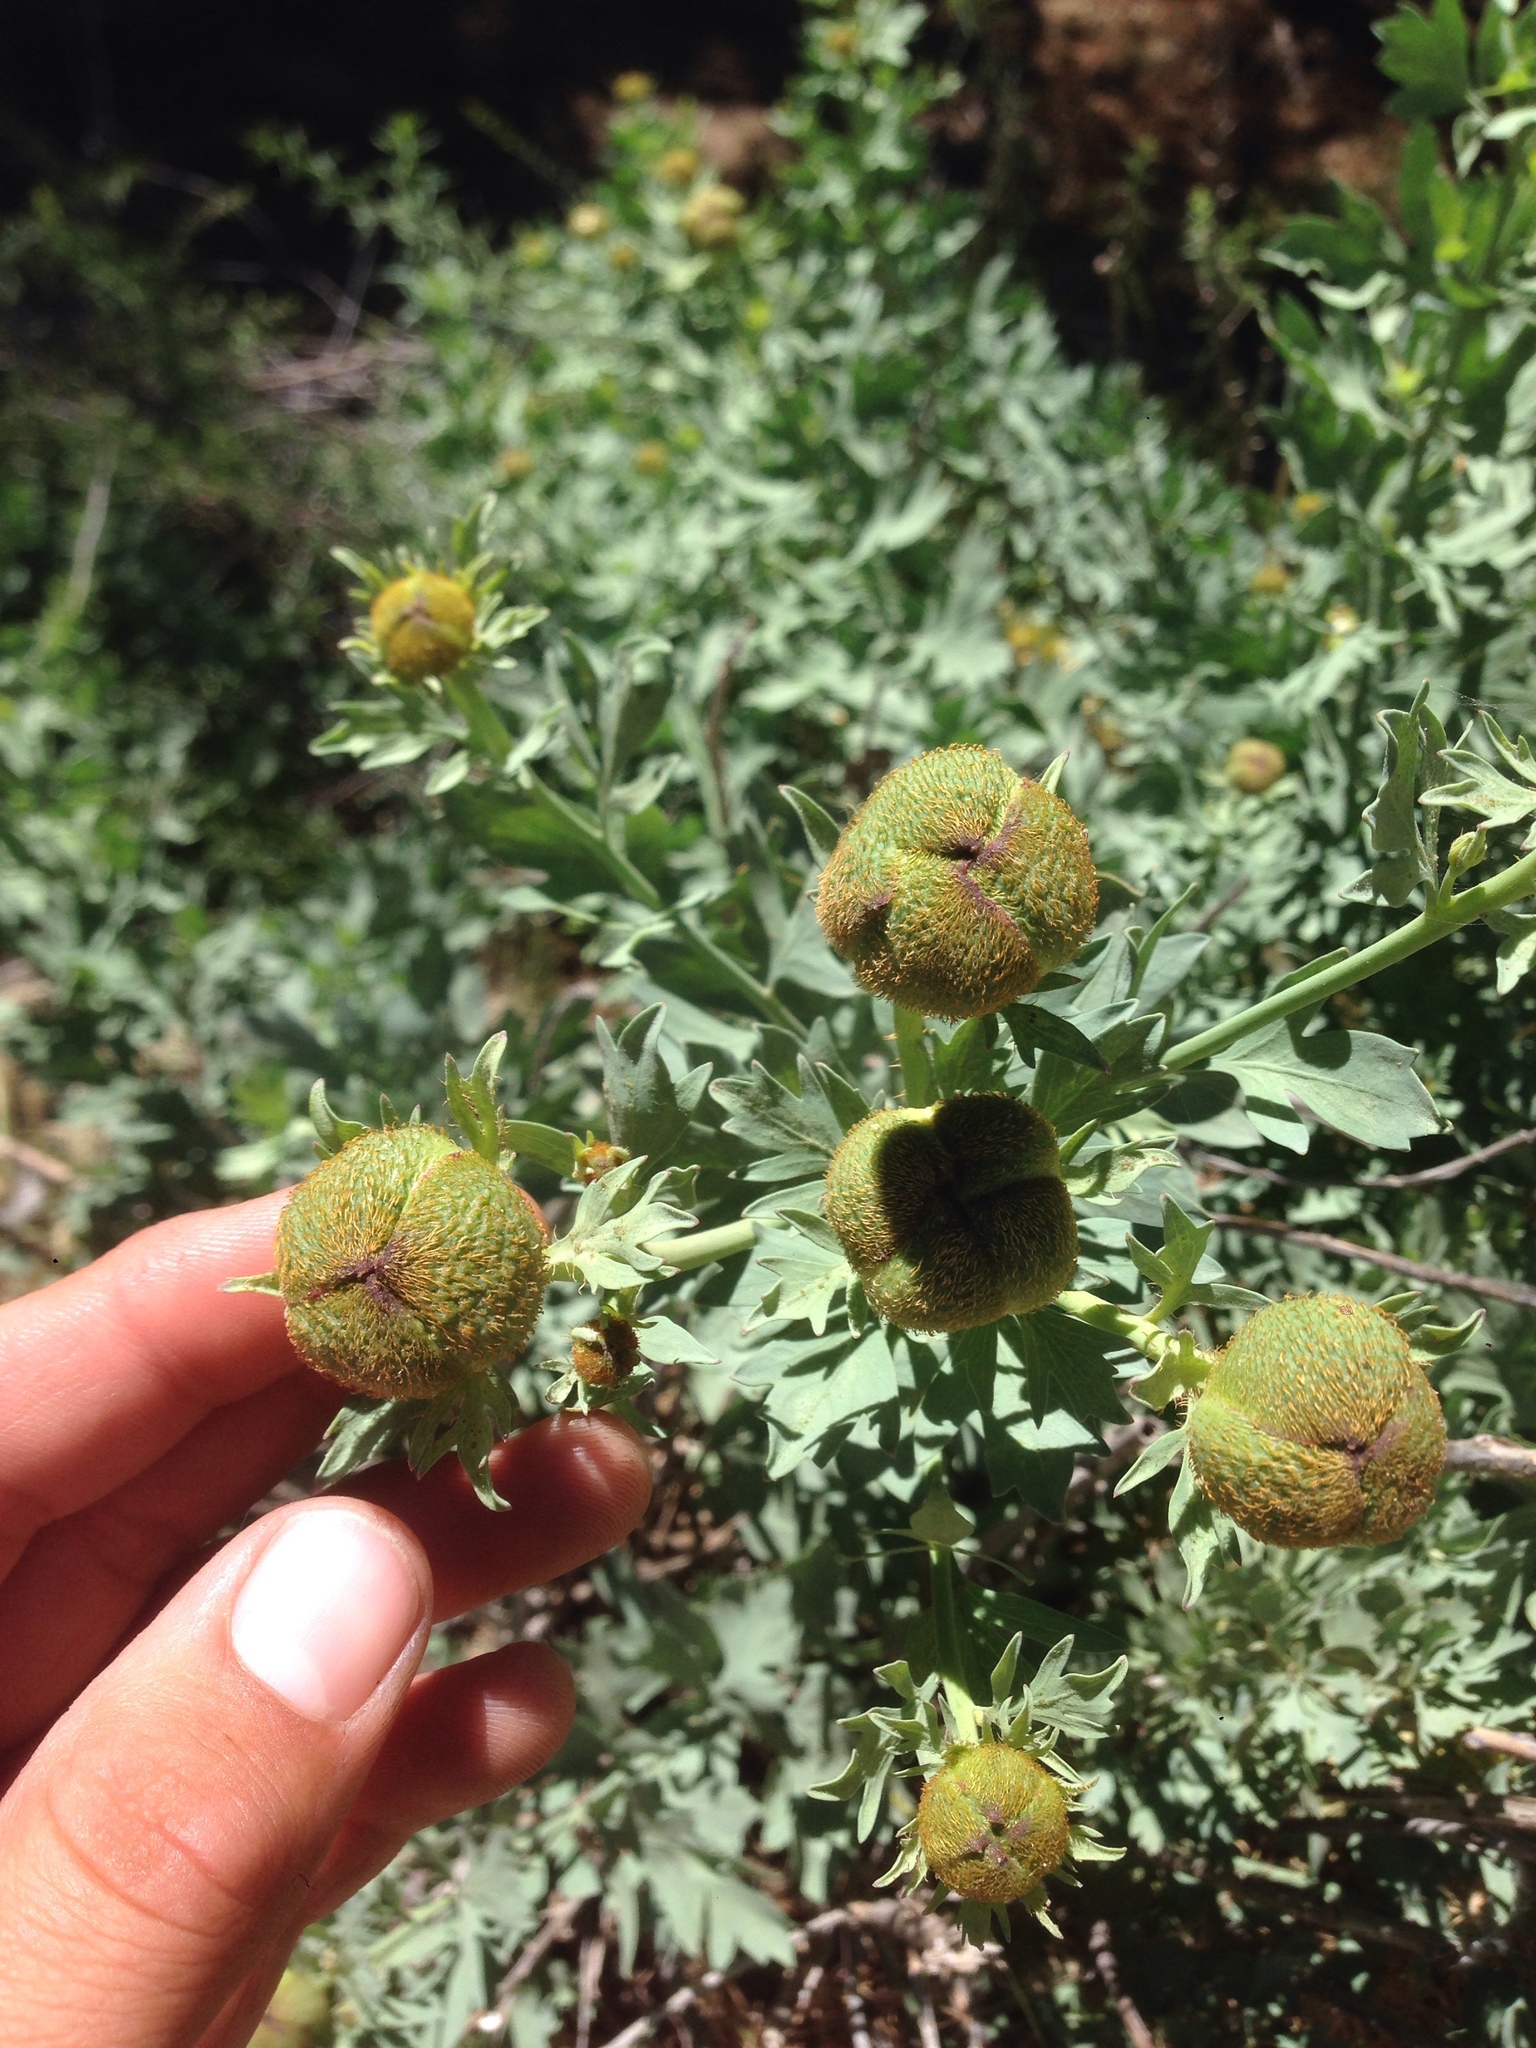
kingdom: Plantae
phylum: Tracheophyta
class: Magnoliopsida
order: Ranunculales
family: Papaveraceae
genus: Romneya
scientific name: Romneya trichocalyx
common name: Hairy matilija-poppy
